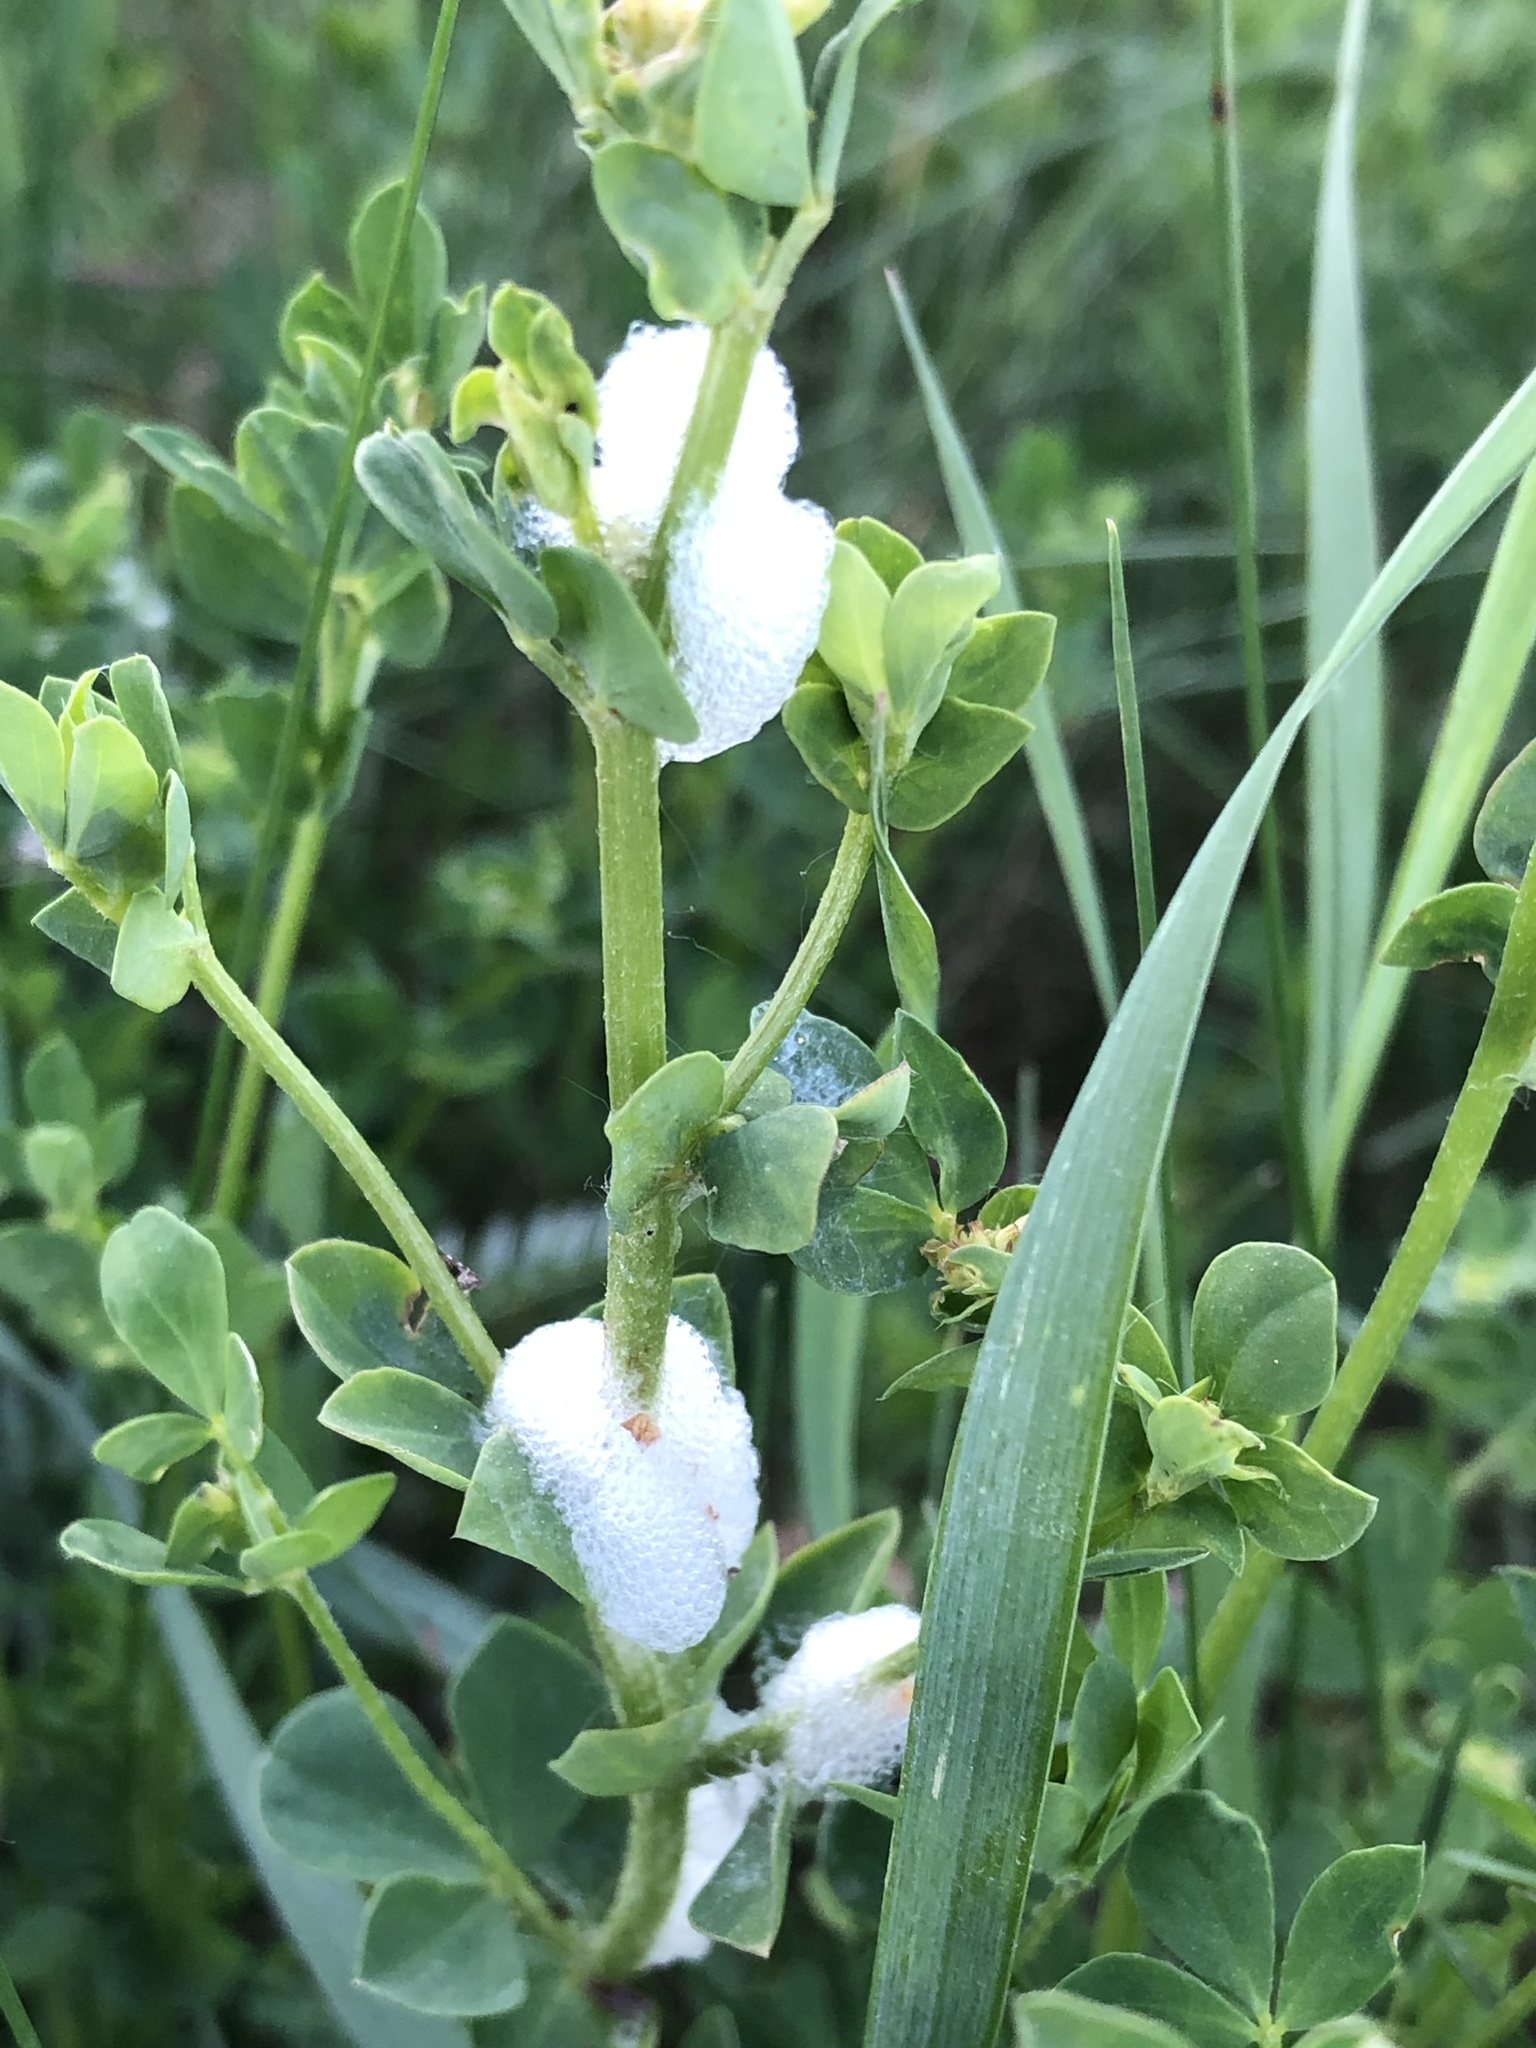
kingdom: Animalia
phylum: Arthropoda
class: Insecta
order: Hemiptera
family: Aphrophoridae
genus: Philaenus
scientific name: Philaenus spumarius
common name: Meadow spittlebug
